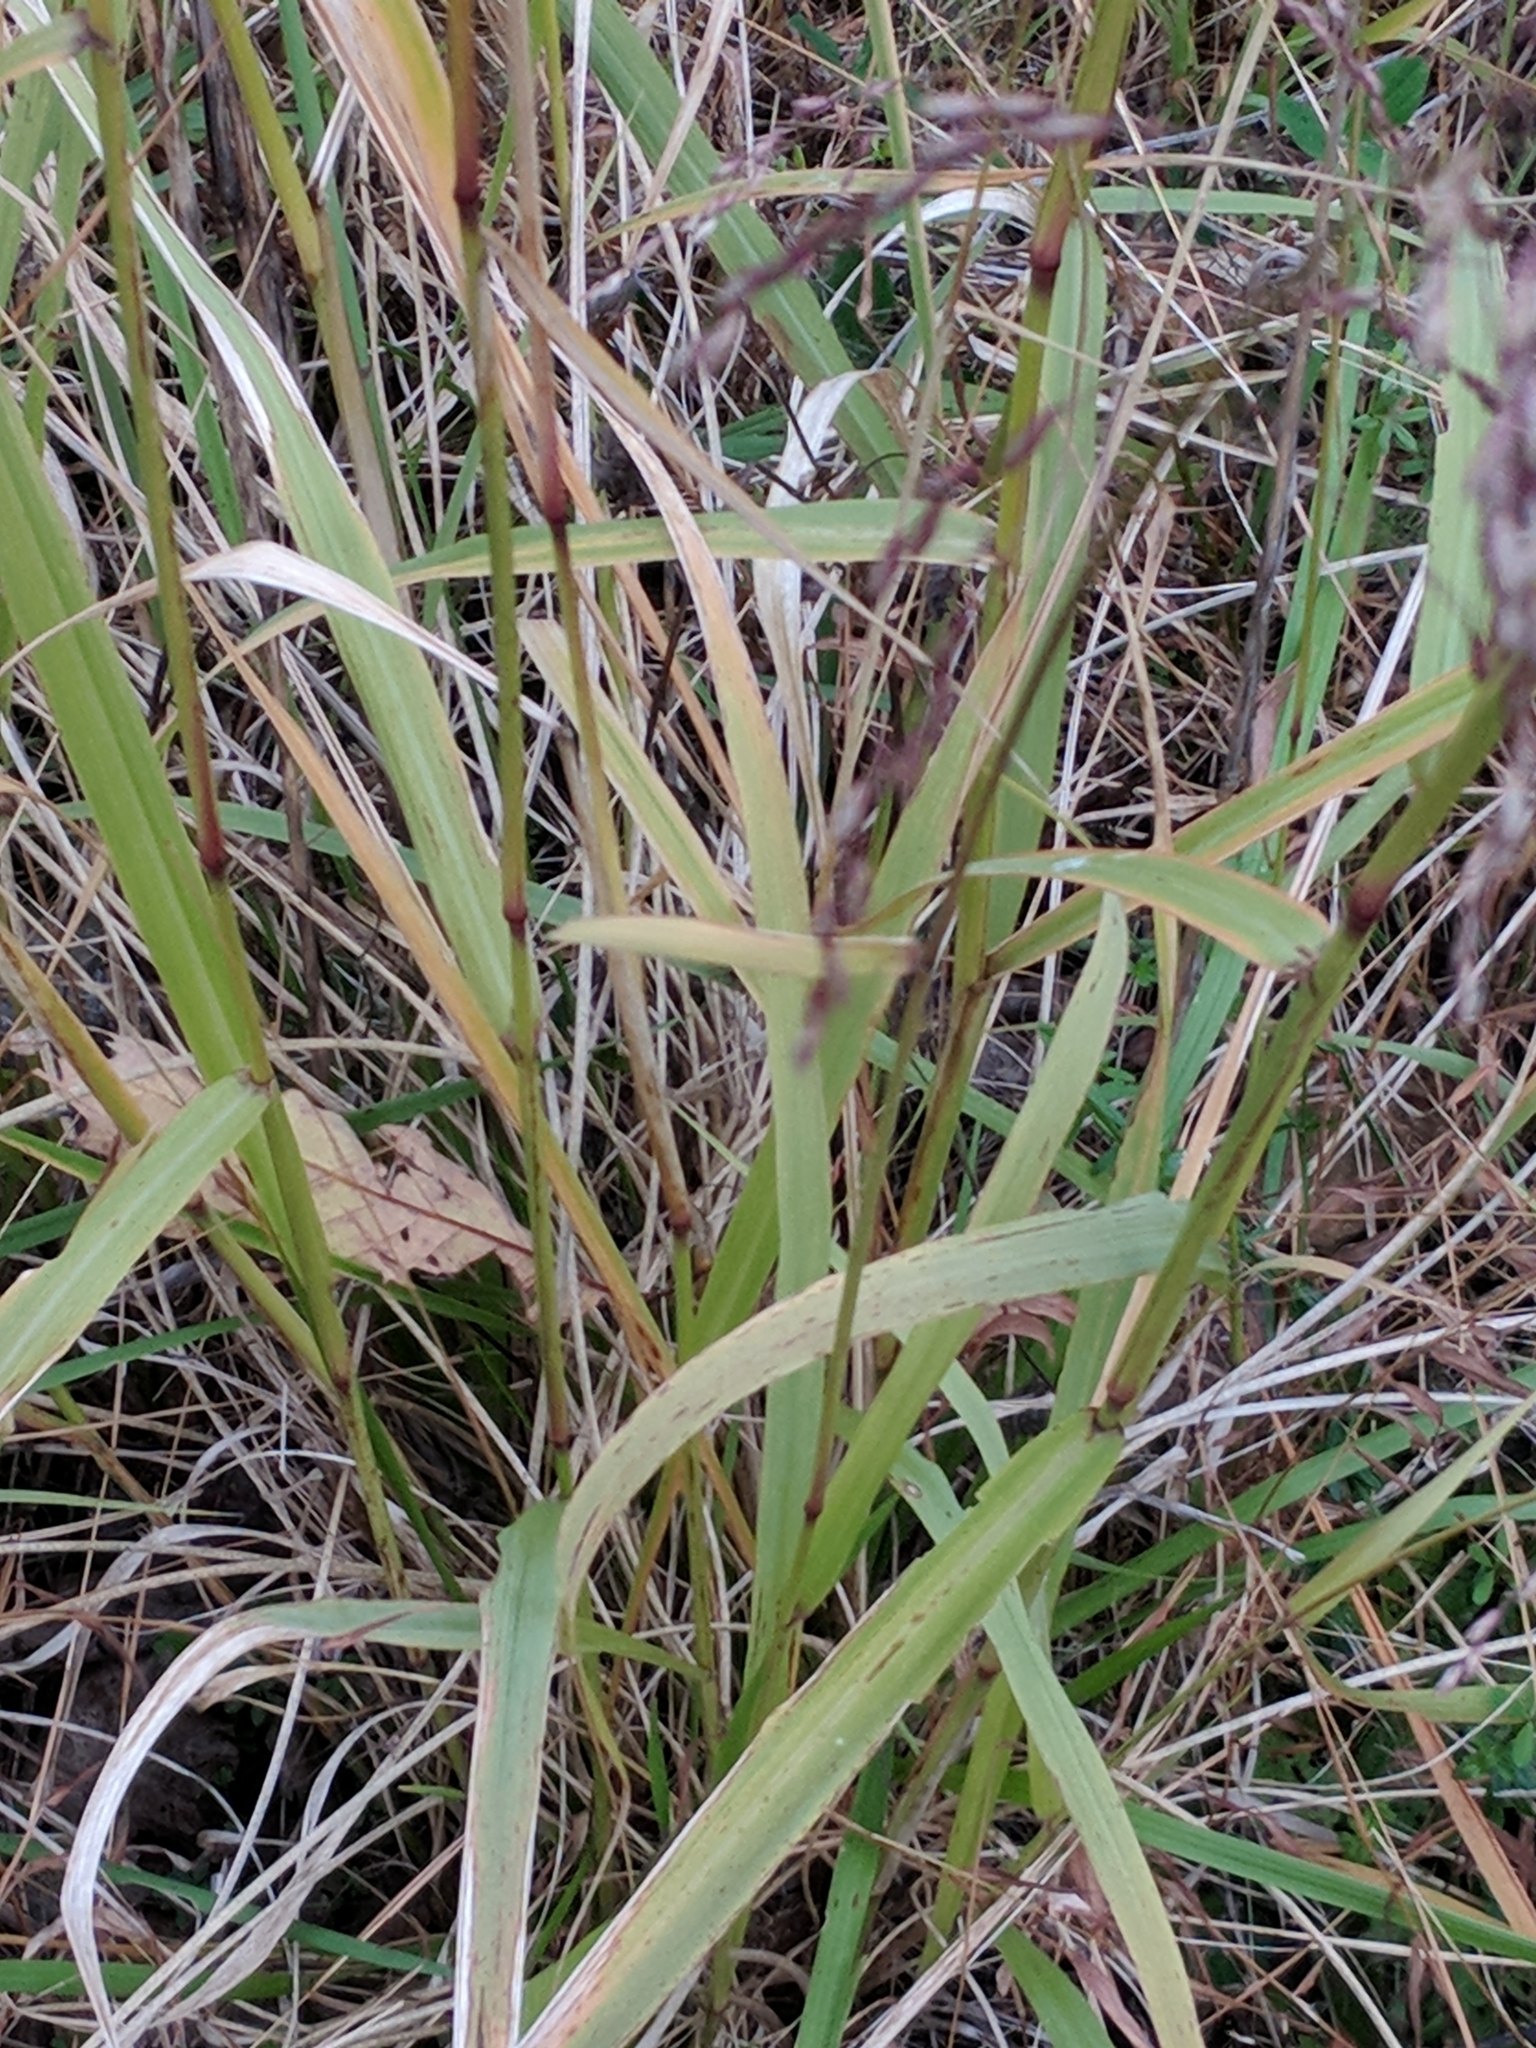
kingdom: Plantae
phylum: Tracheophyta
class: Liliopsida
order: Poales
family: Poaceae
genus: Tridens
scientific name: Tridens flavus
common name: Purpletop
